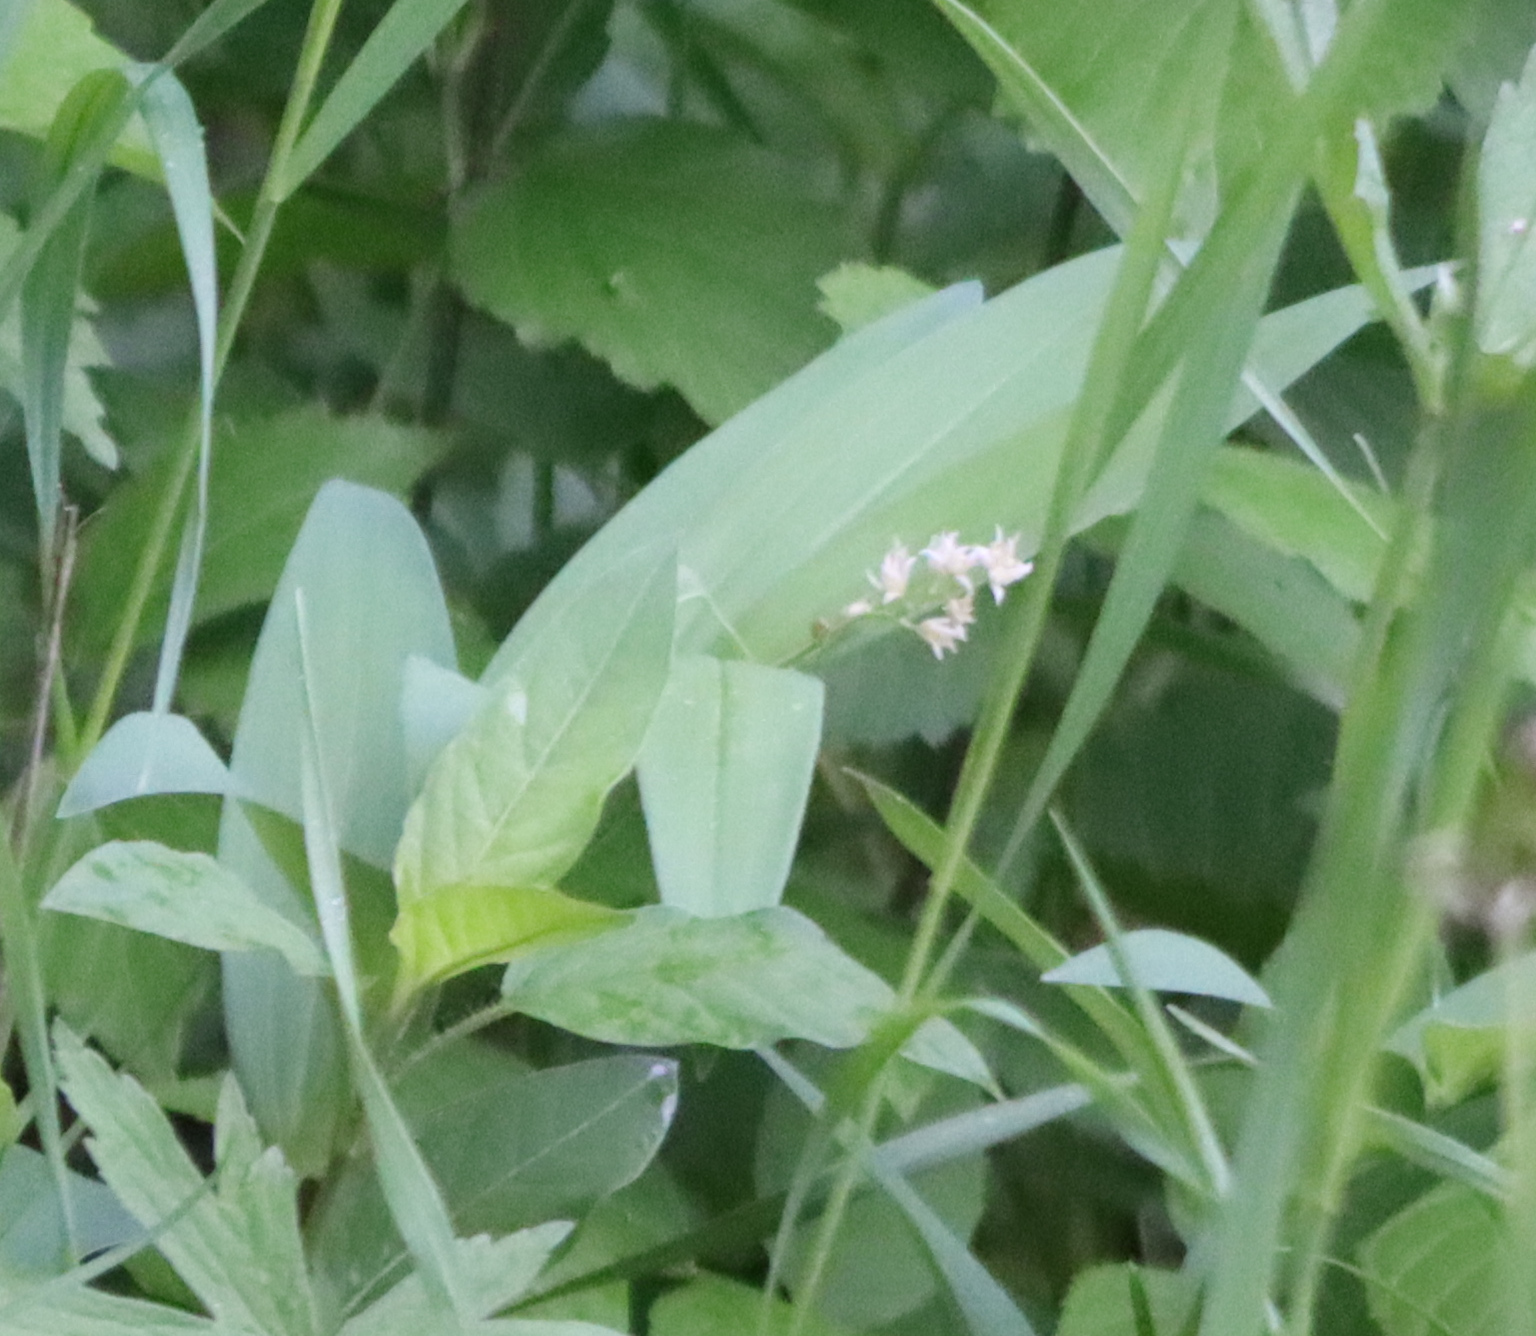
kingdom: Plantae
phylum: Tracheophyta
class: Liliopsida
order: Asparagales
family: Asparagaceae
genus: Maianthemum
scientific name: Maianthemum stellatum
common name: Little false solomon's seal
